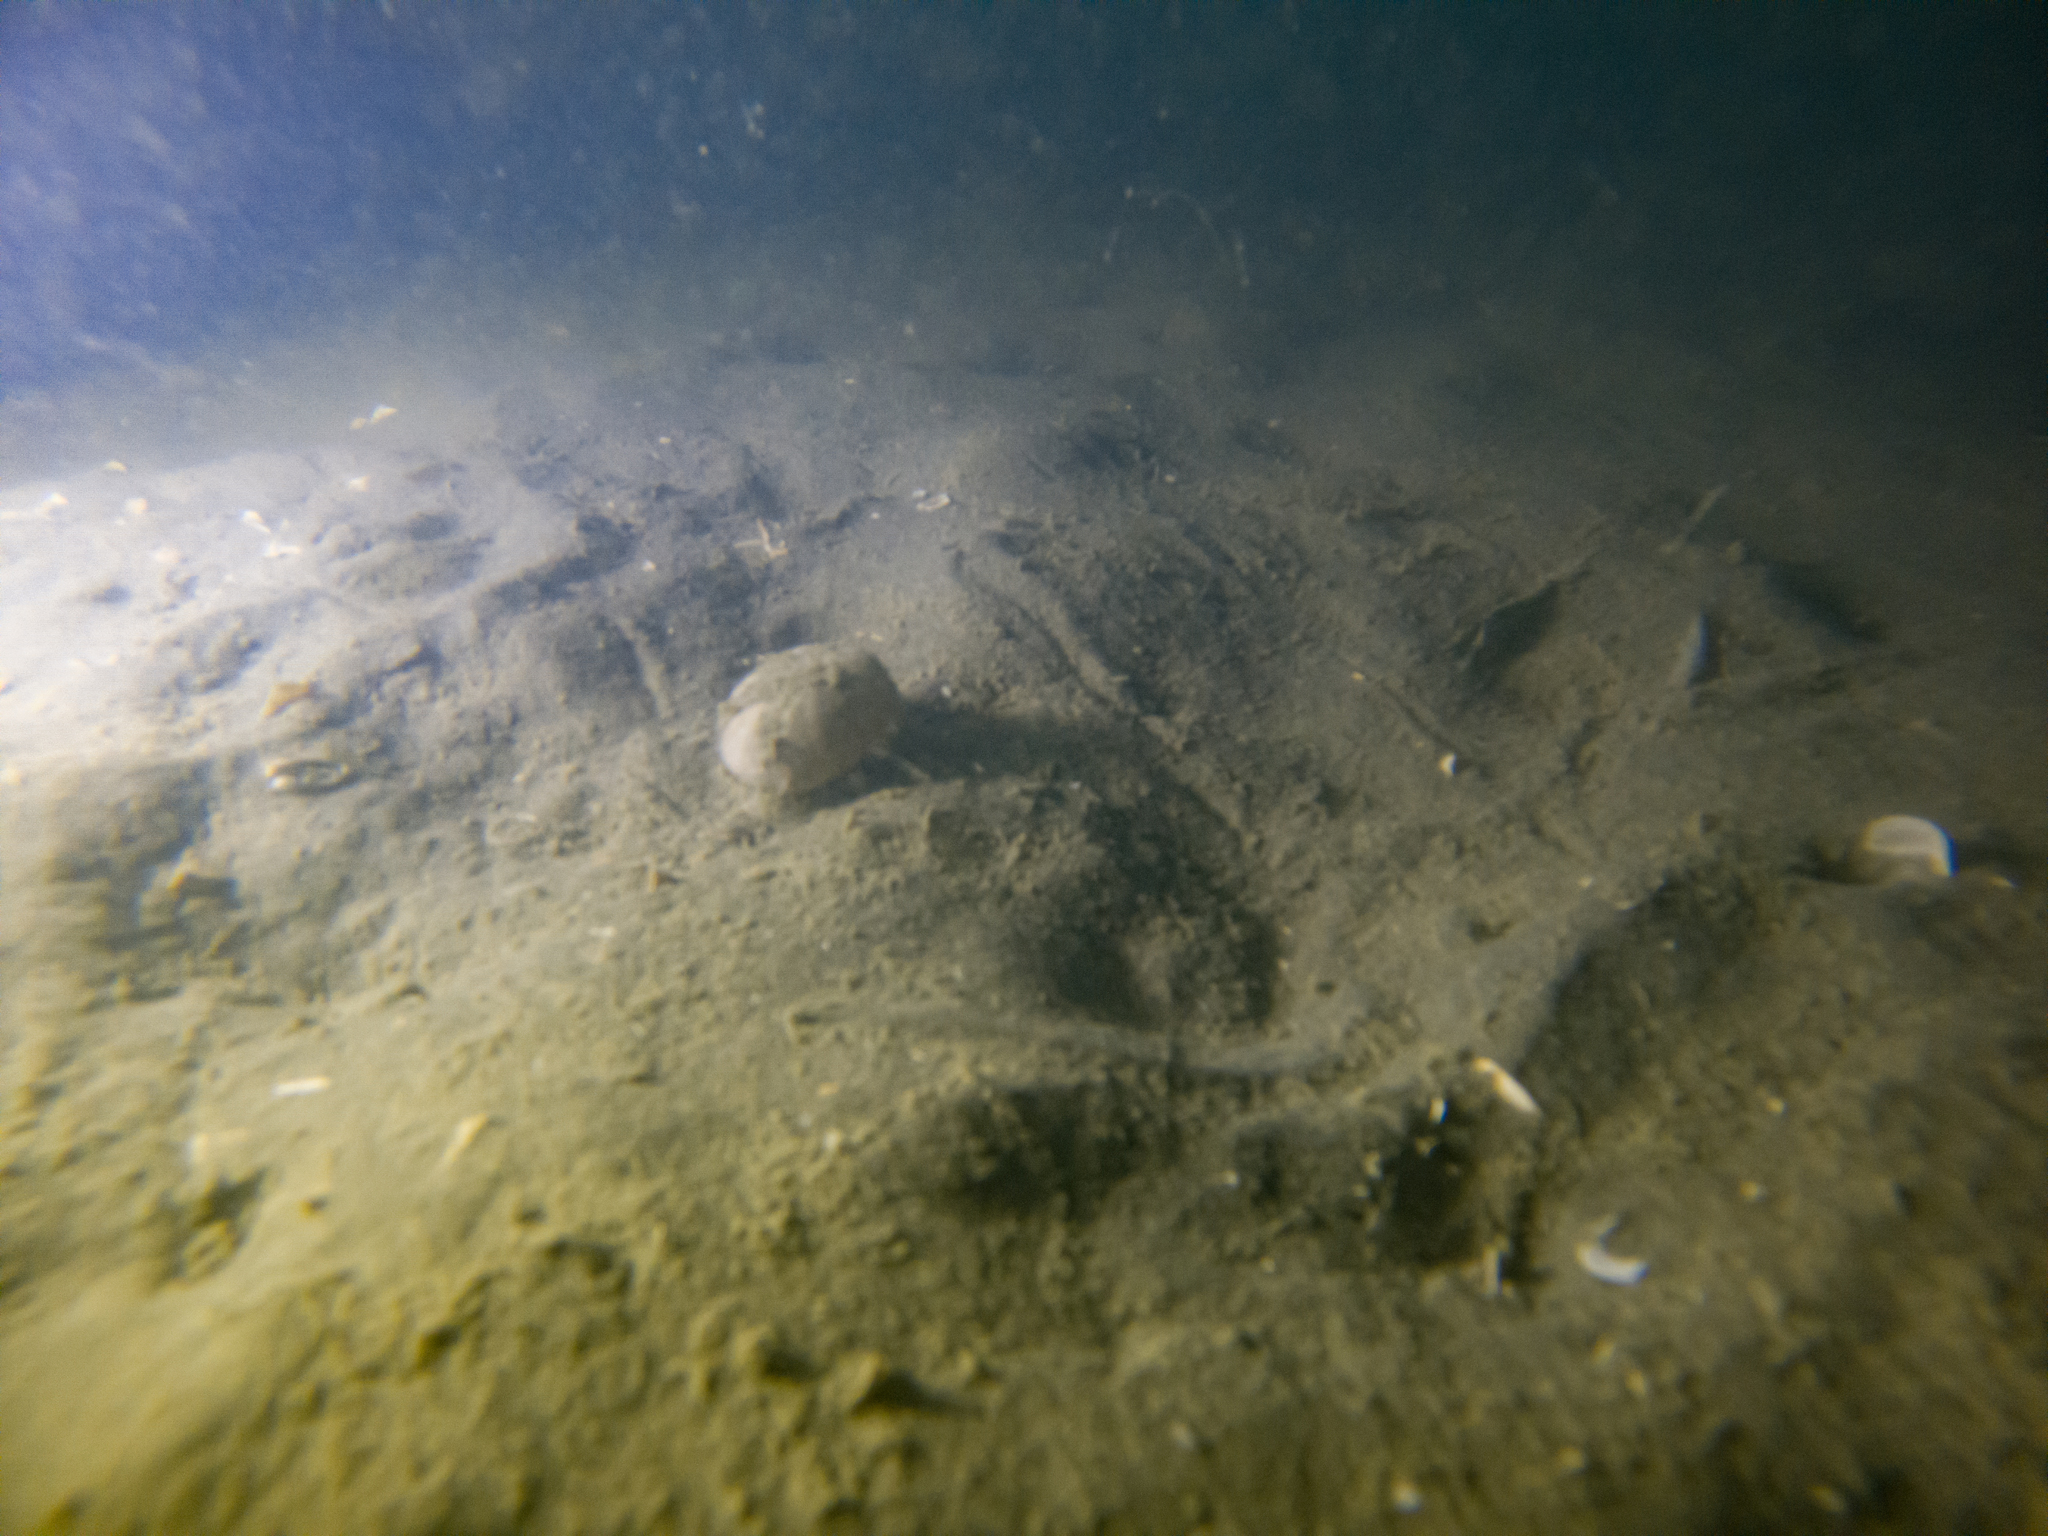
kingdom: Animalia
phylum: Echinodermata
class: Echinoidea
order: Spatangoida
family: Loveniidae
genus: Echinocardium
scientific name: Echinocardium cordatum
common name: Heart-urchin
